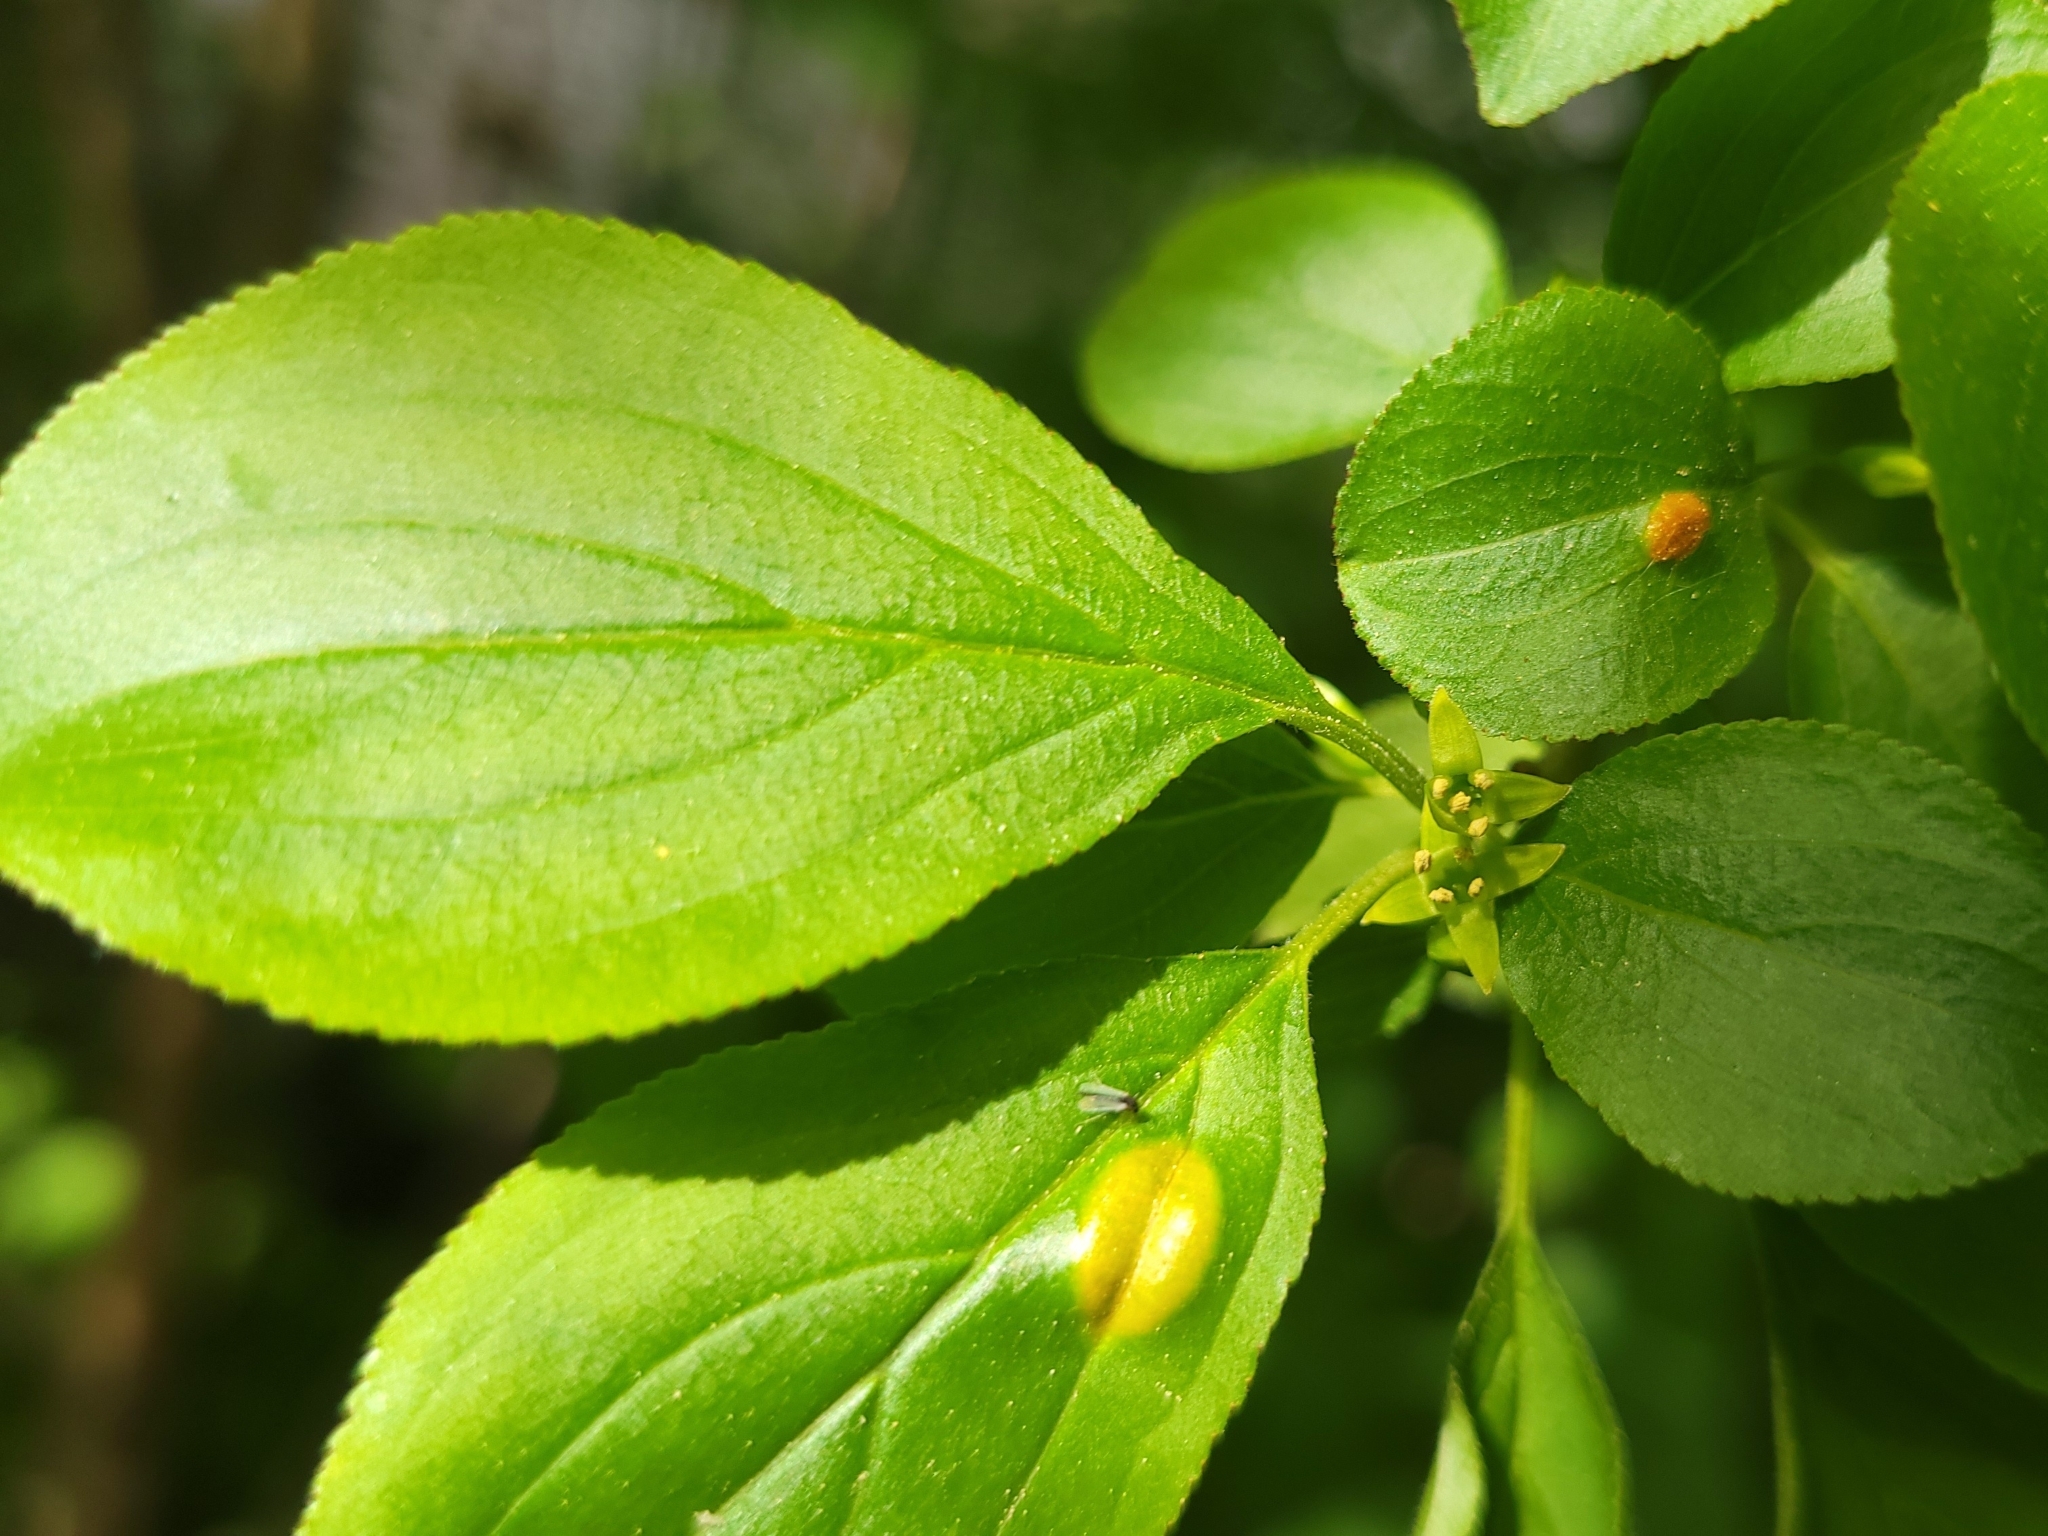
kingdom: Plantae
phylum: Tracheophyta
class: Magnoliopsida
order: Rosales
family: Rhamnaceae
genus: Rhamnus
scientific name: Rhamnus cathartica
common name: Common buckthorn
